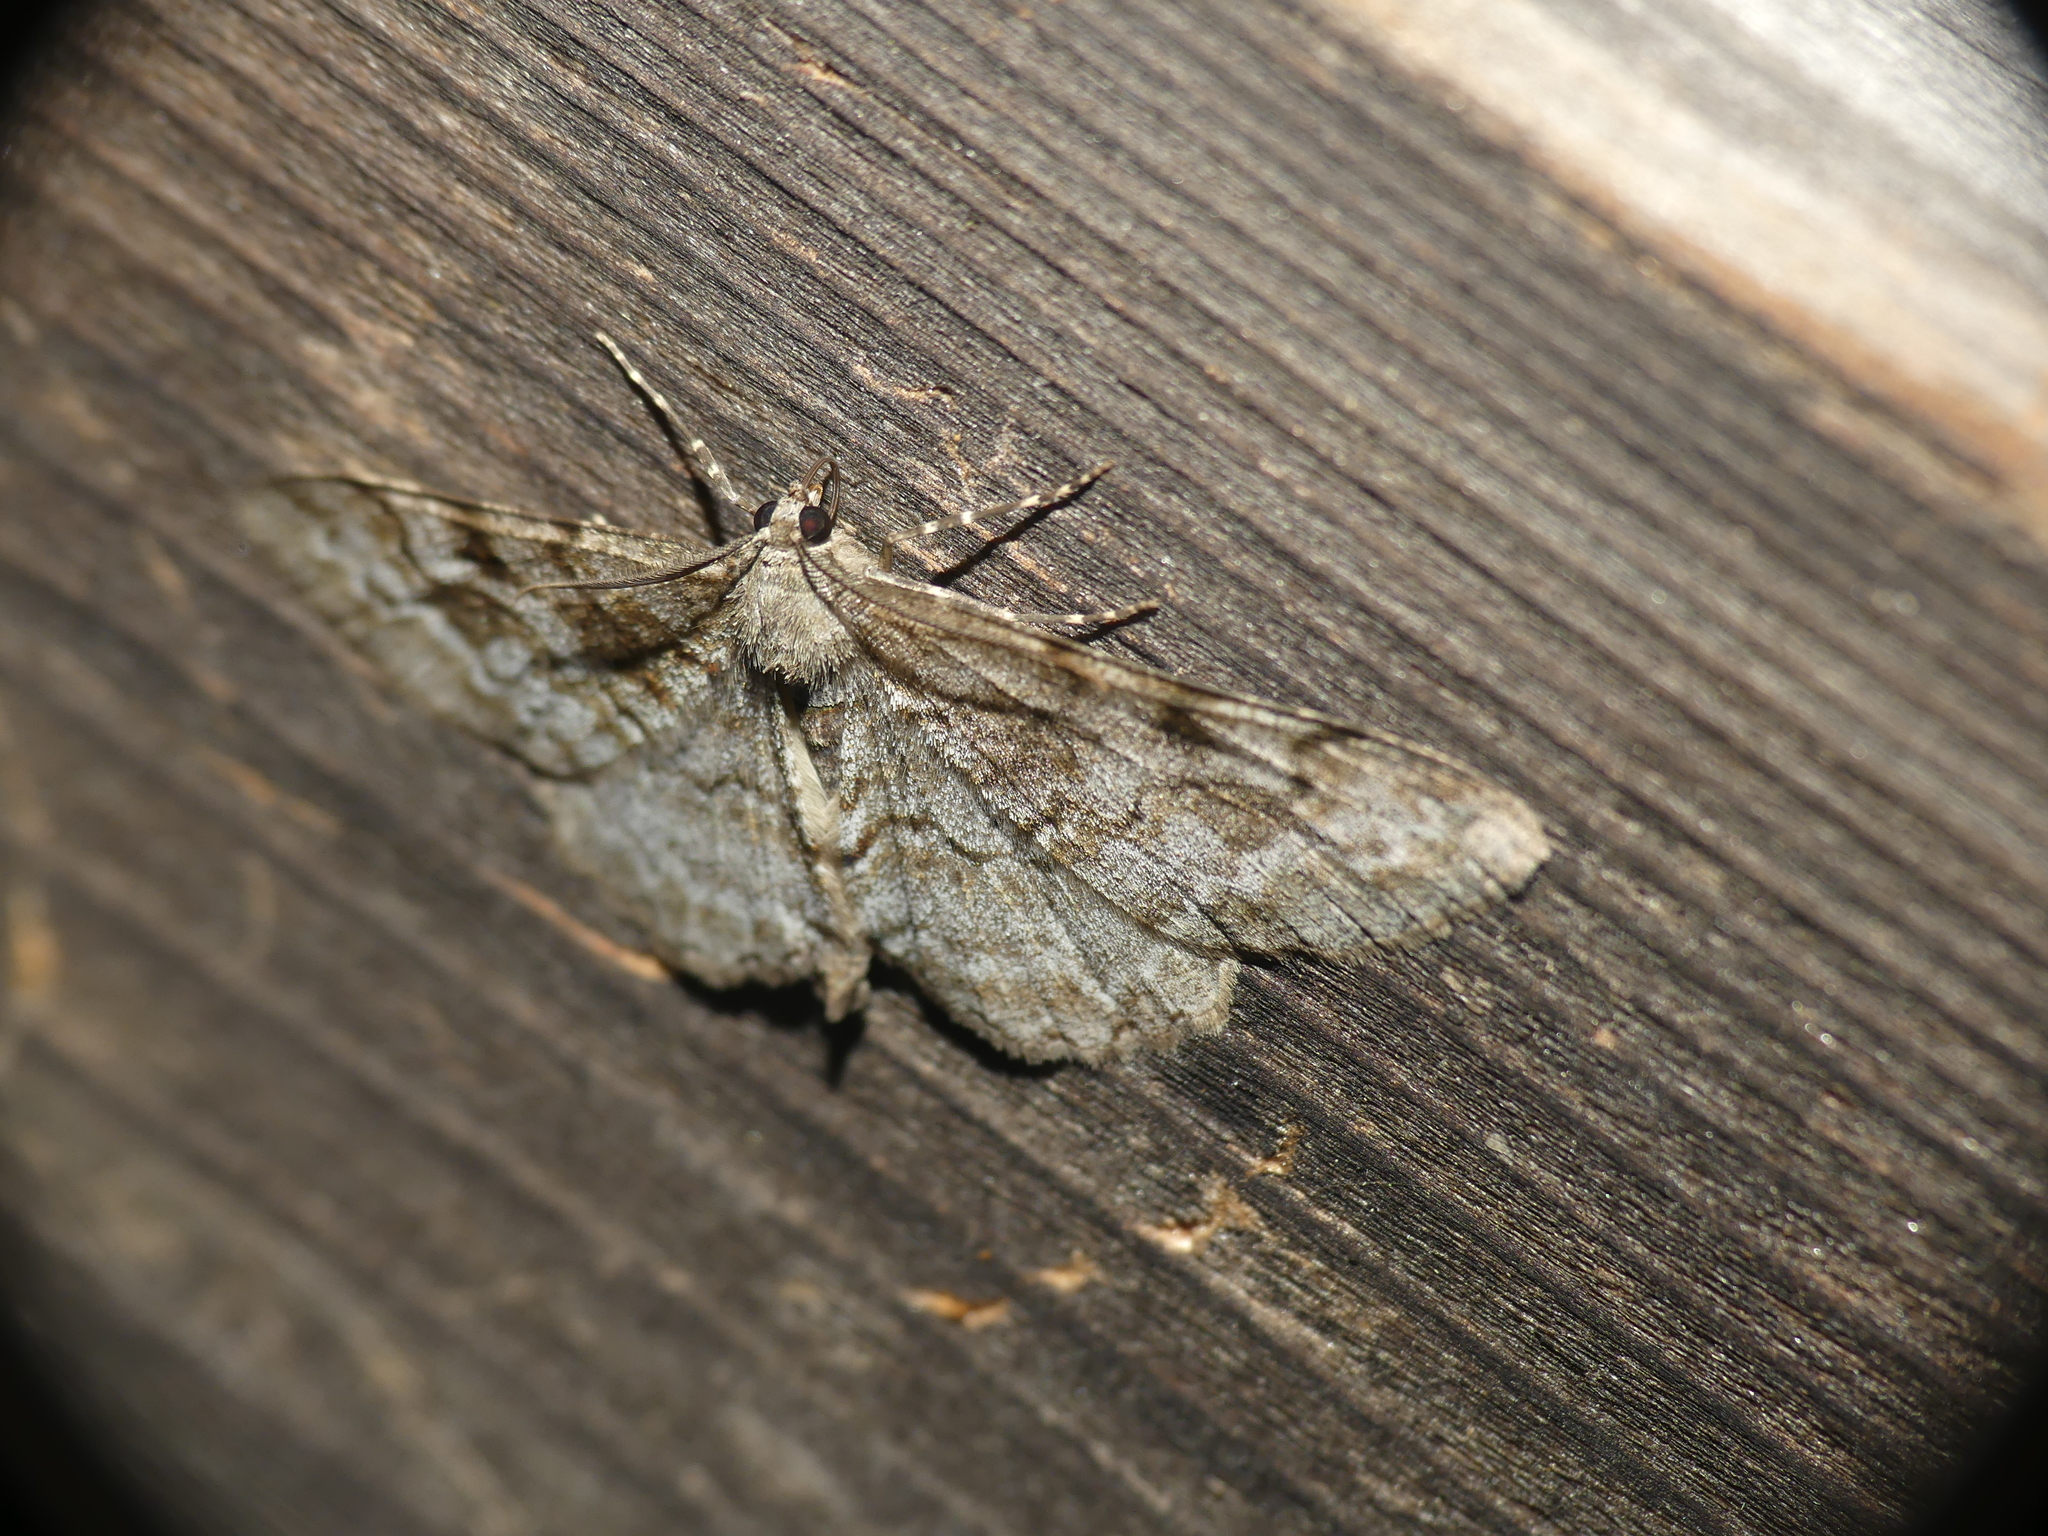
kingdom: Animalia
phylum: Arthropoda
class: Insecta
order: Lepidoptera
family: Geometridae
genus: Alcis
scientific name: Alcis repandata
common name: Mottled beauty
